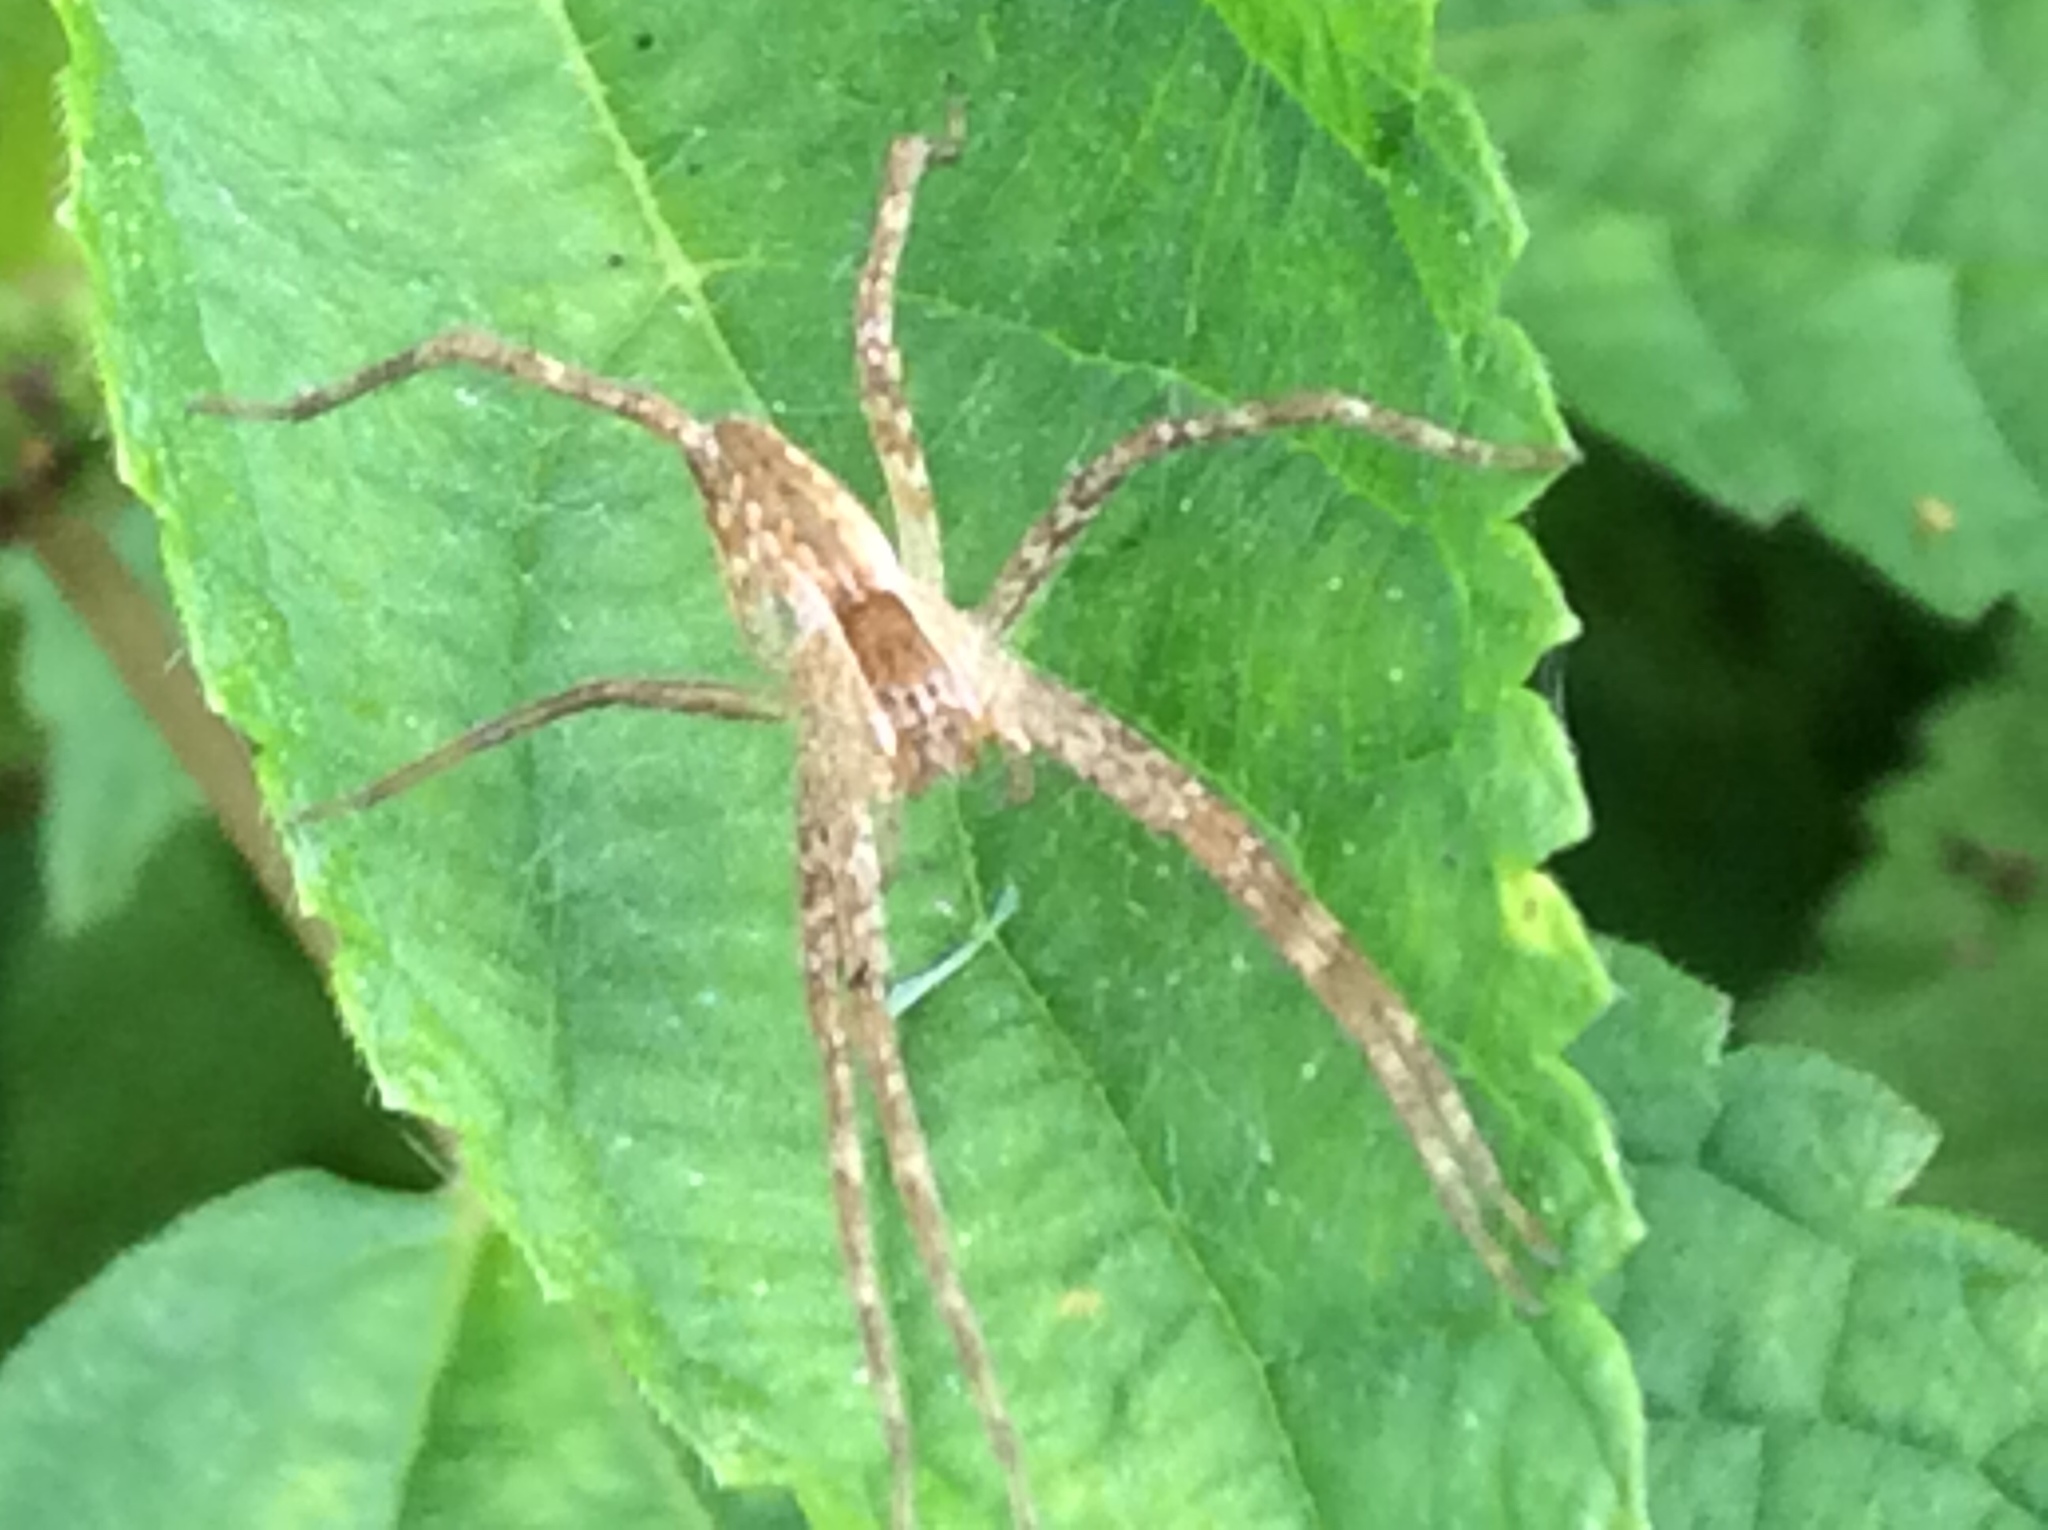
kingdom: Animalia
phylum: Arthropoda
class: Arachnida
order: Araneae
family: Pisauridae
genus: Pisaurina
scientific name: Pisaurina mira
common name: American nursery web spider
